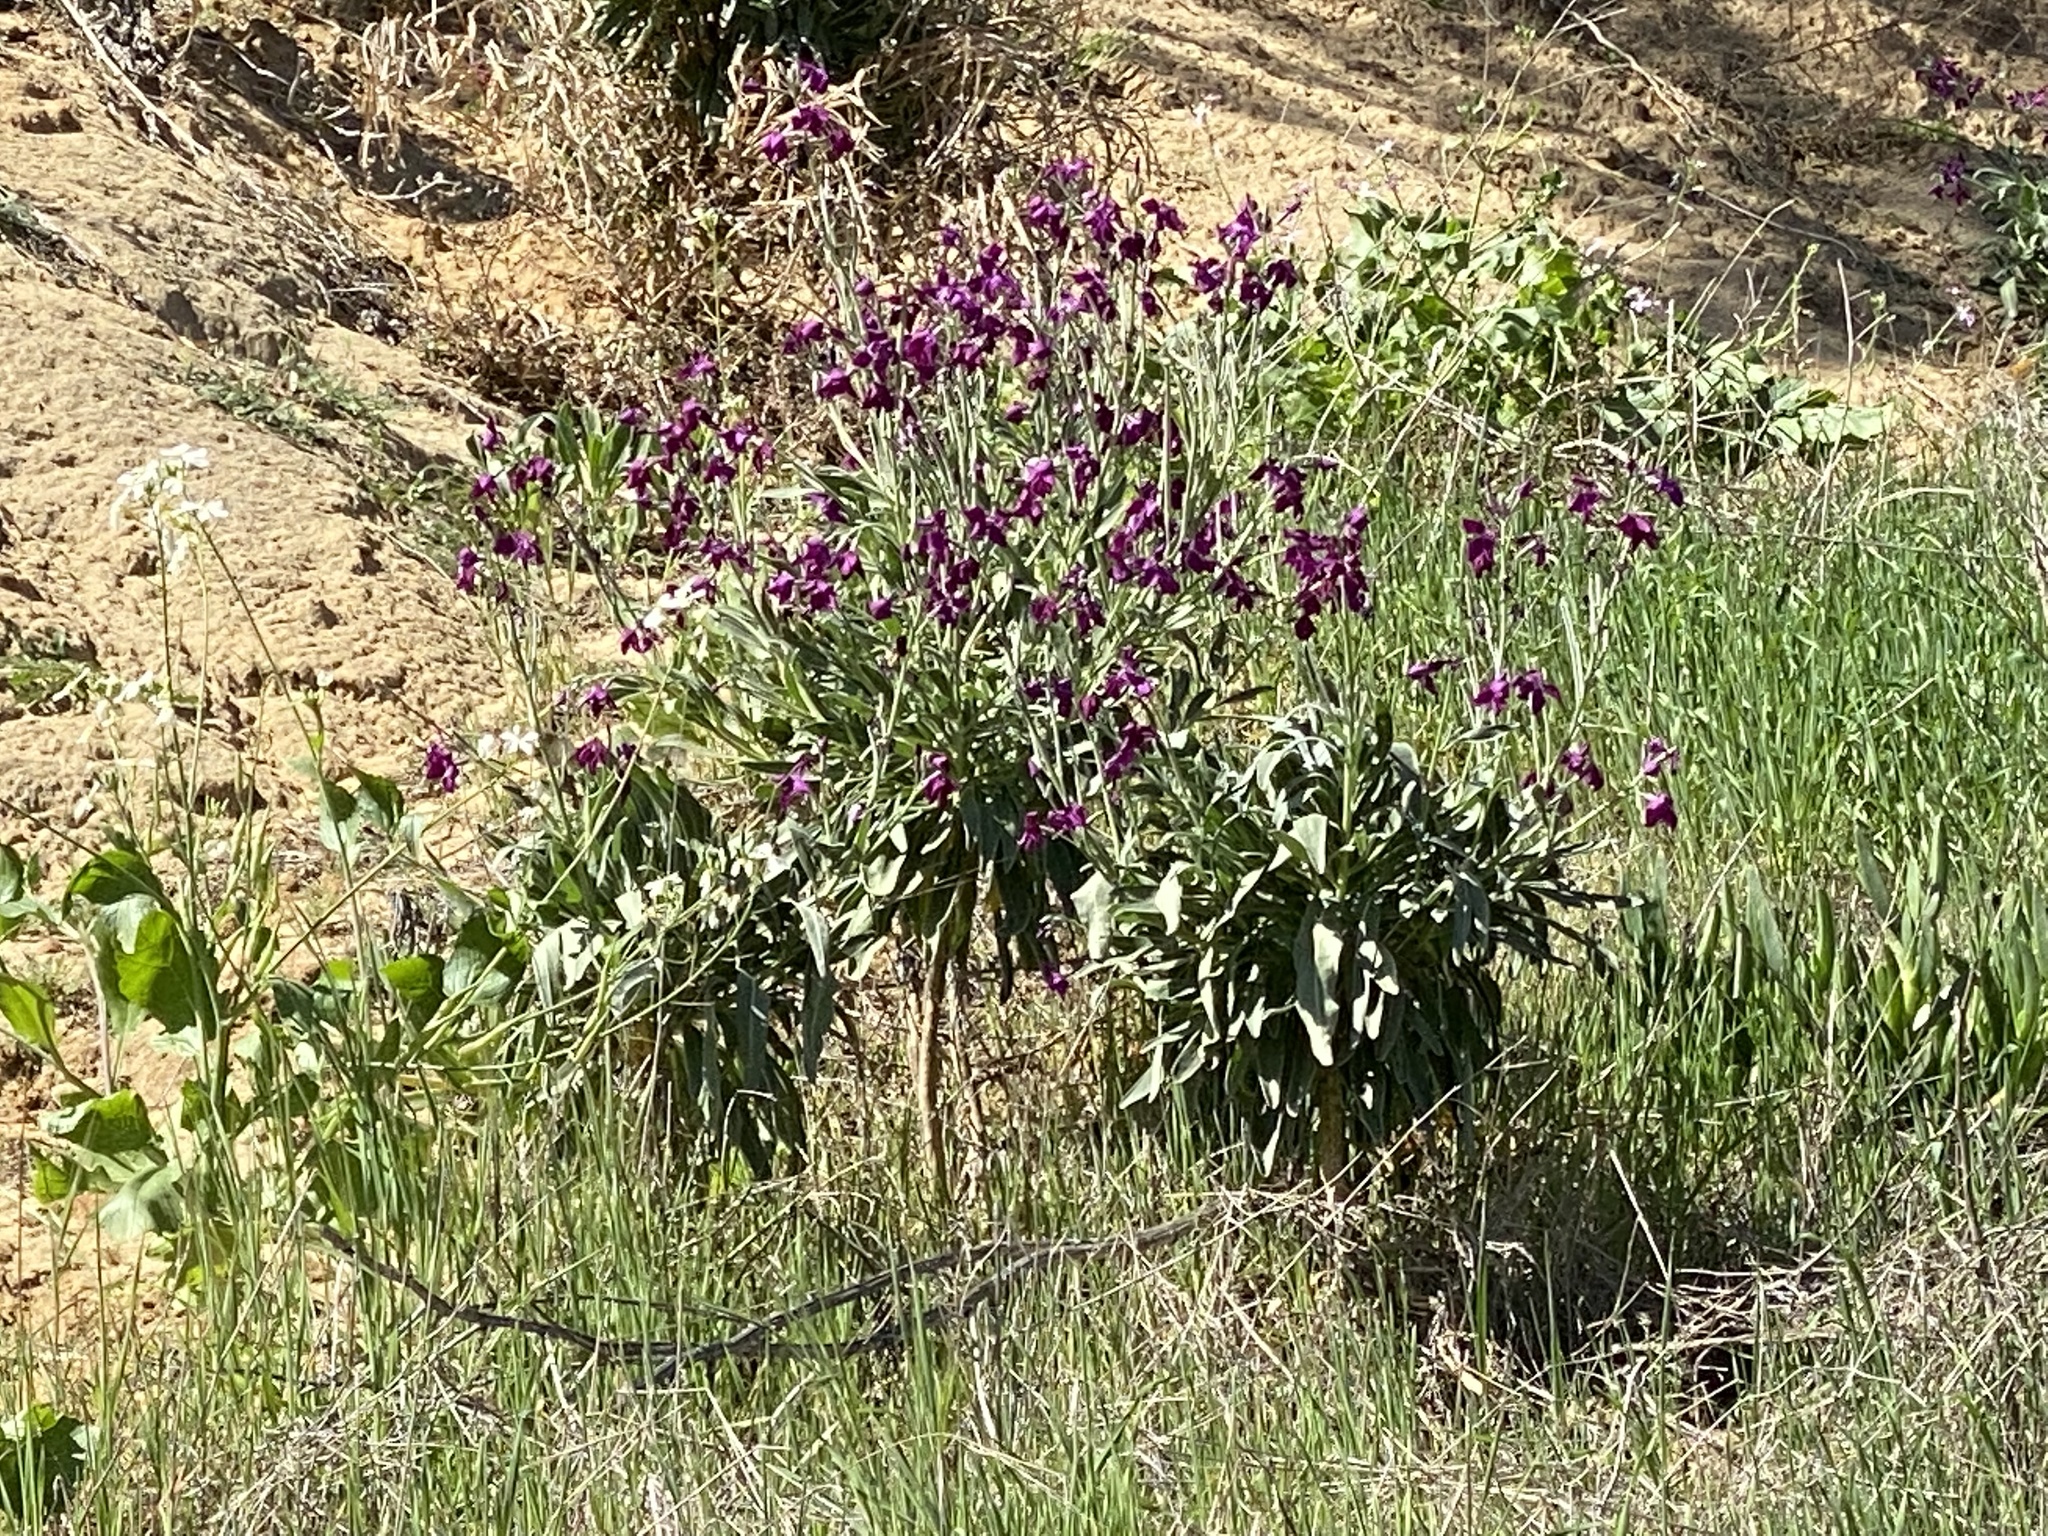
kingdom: Plantae
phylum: Tracheophyta
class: Magnoliopsida
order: Brassicales
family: Brassicaceae
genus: Matthiola
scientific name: Matthiola incana
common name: Hoary stock
